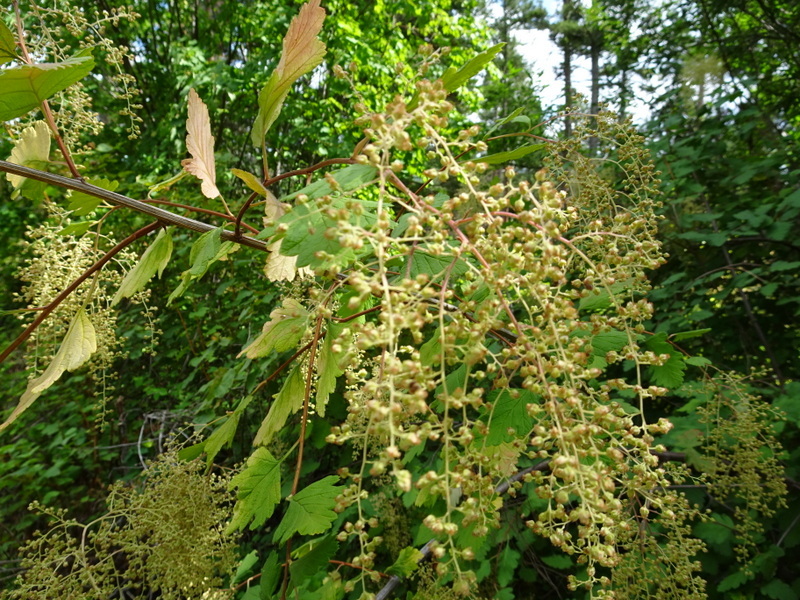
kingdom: Plantae
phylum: Tracheophyta
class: Magnoliopsida
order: Rosales
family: Rosaceae
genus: Holodiscus
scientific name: Holodiscus discolor
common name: Oceanspray
